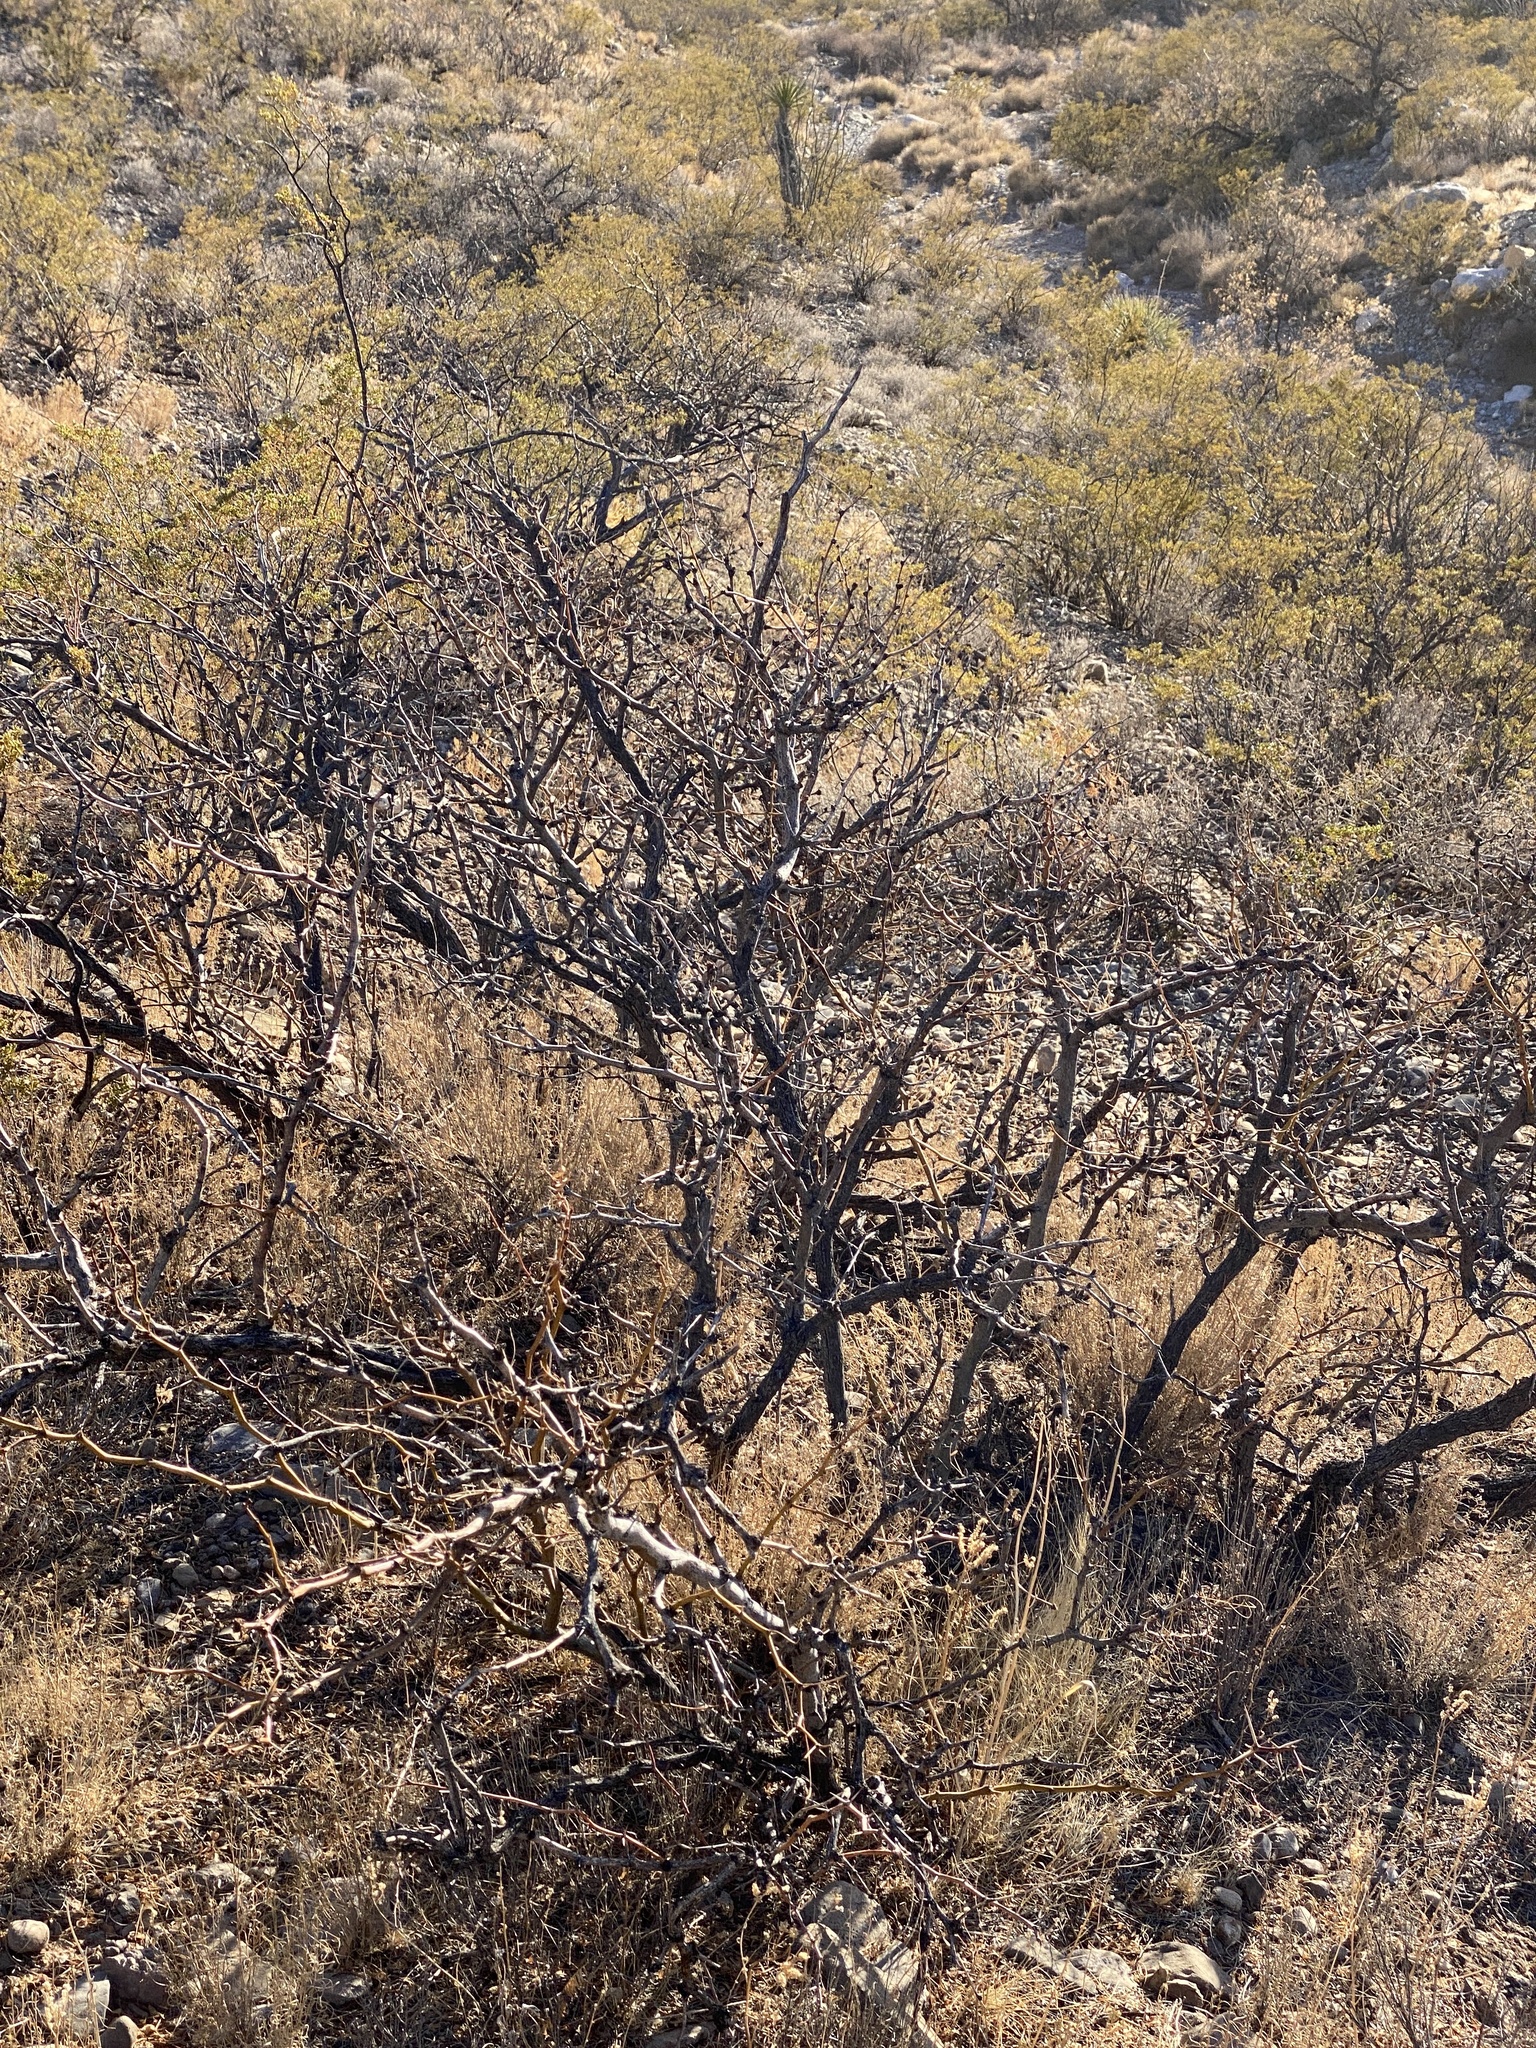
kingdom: Plantae
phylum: Tracheophyta
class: Magnoliopsida
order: Fabales
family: Fabaceae
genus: Prosopis
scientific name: Prosopis glandulosa
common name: Honey mesquite
